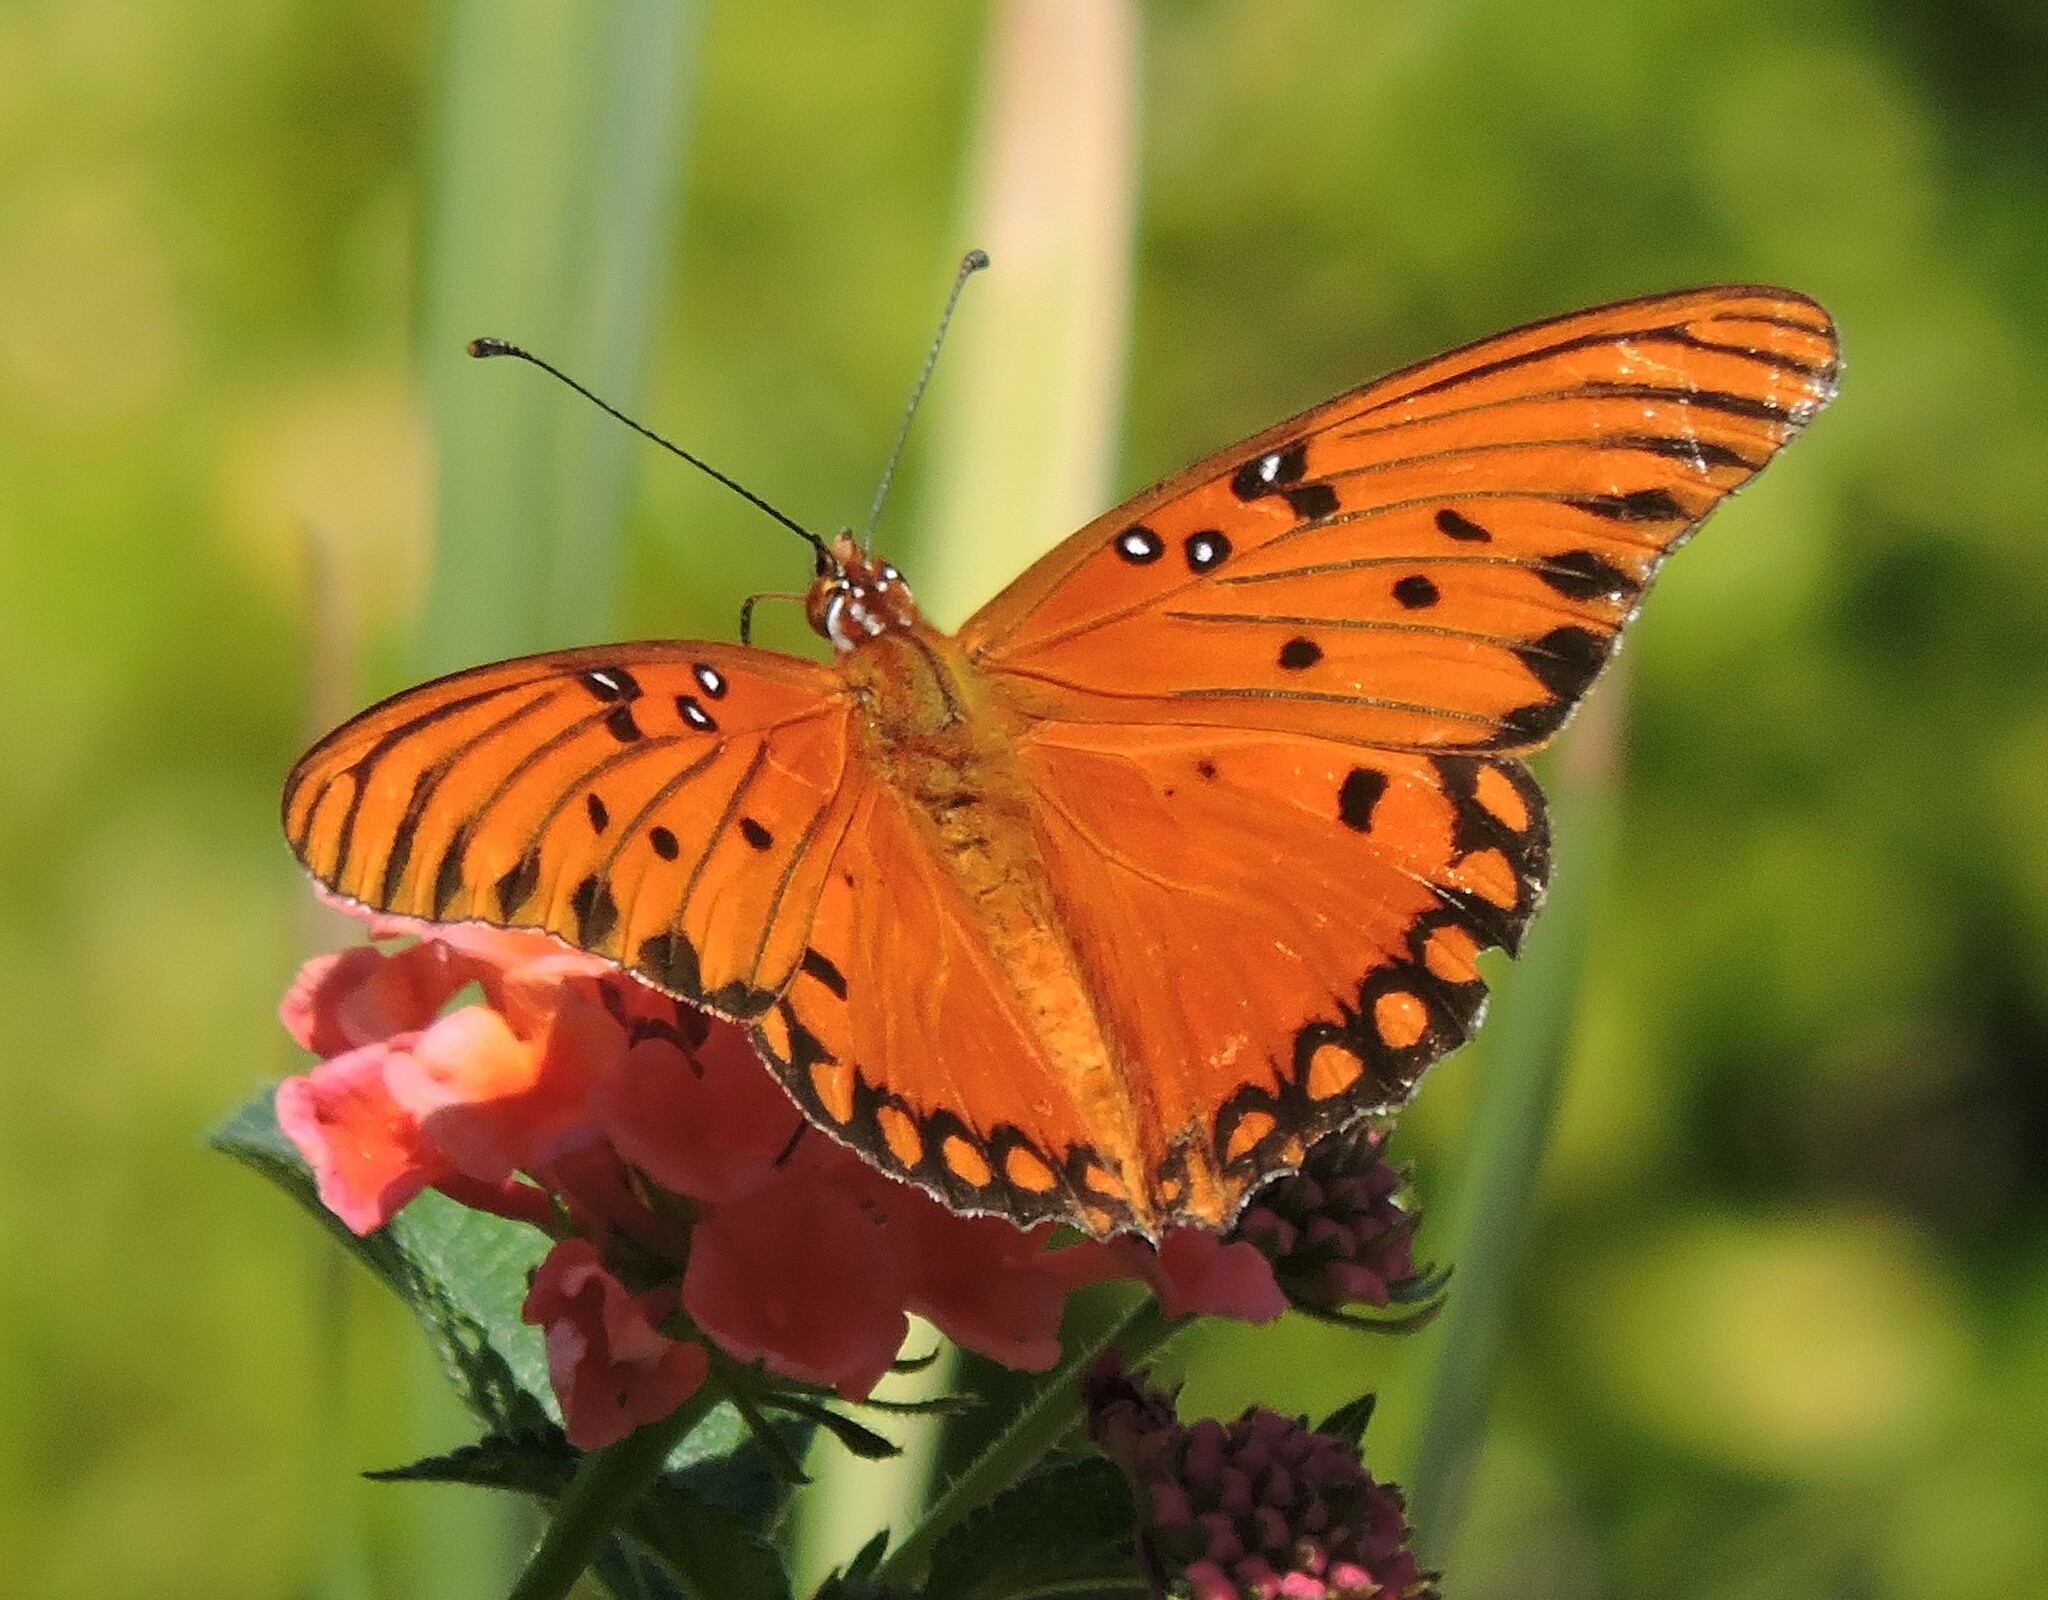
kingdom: Animalia
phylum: Arthropoda
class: Insecta
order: Lepidoptera
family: Nymphalidae
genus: Dione
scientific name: Dione vanillae
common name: Gulf fritillary
